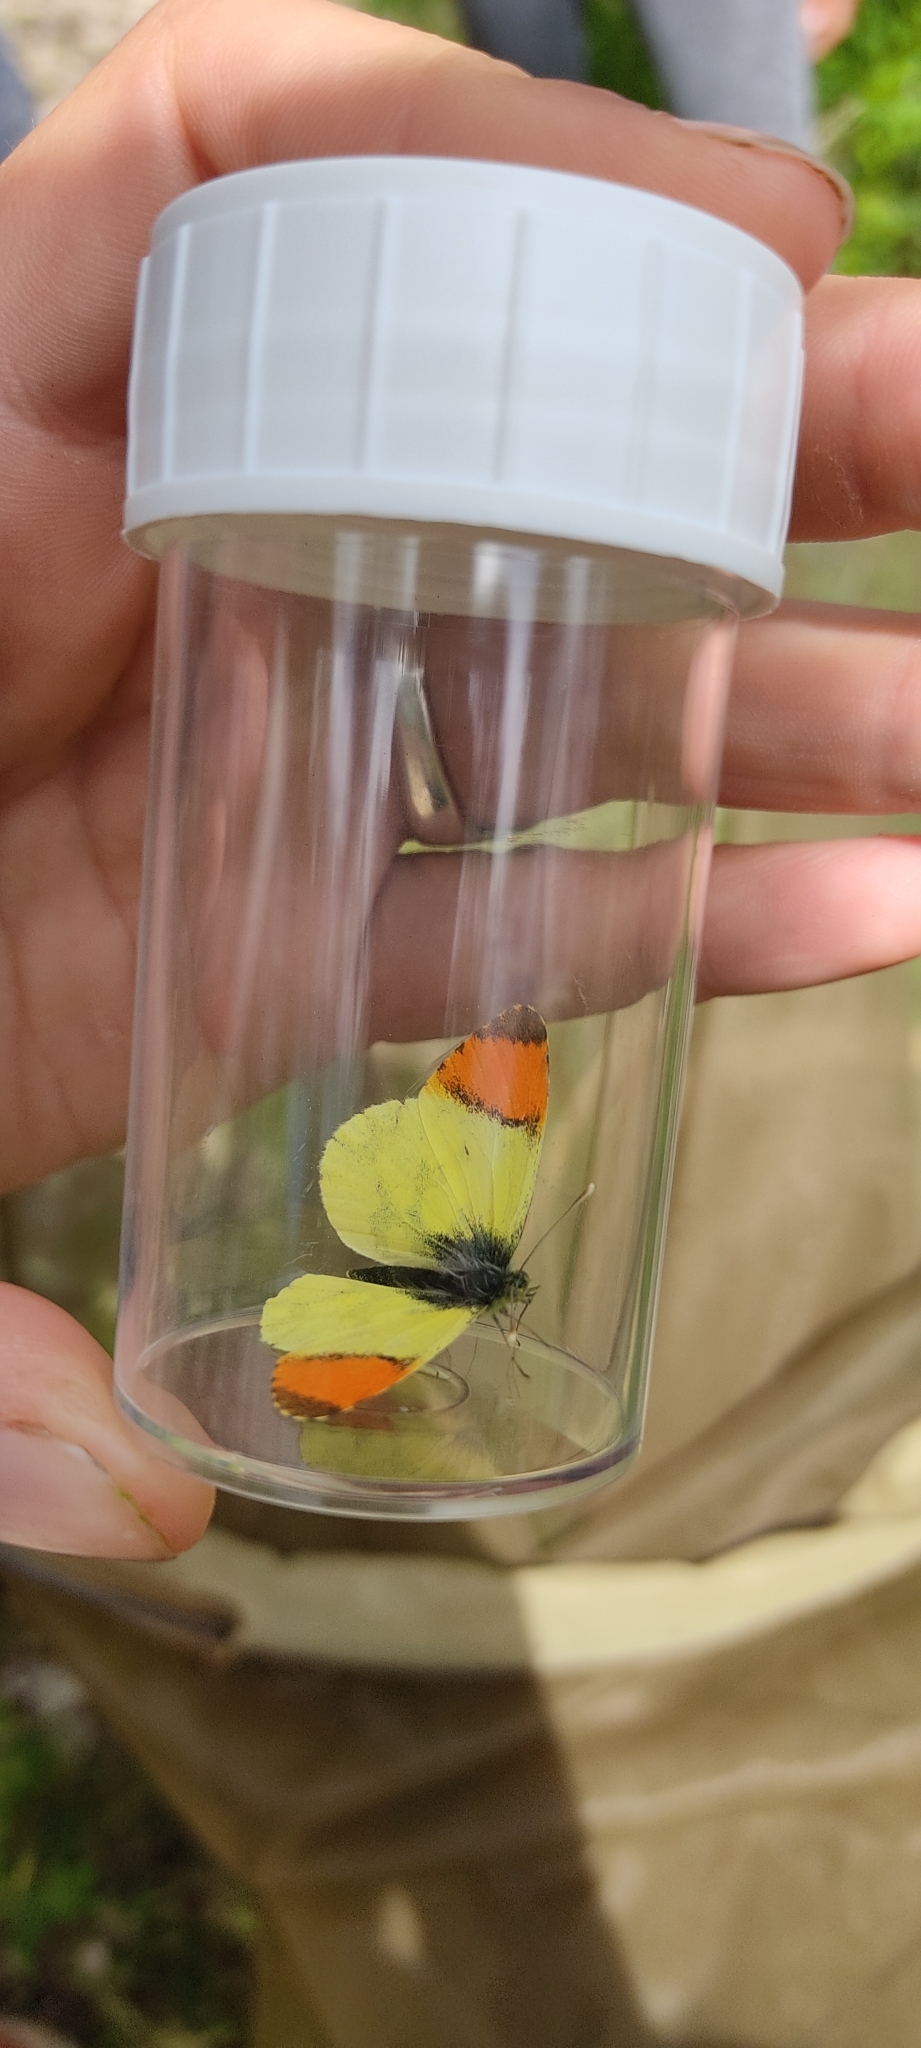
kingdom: Animalia
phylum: Arthropoda
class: Insecta
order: Lepidoptera
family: Pieridae
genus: Anthocharis
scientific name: Anthocharis euphenoides
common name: Provence orange-tip
